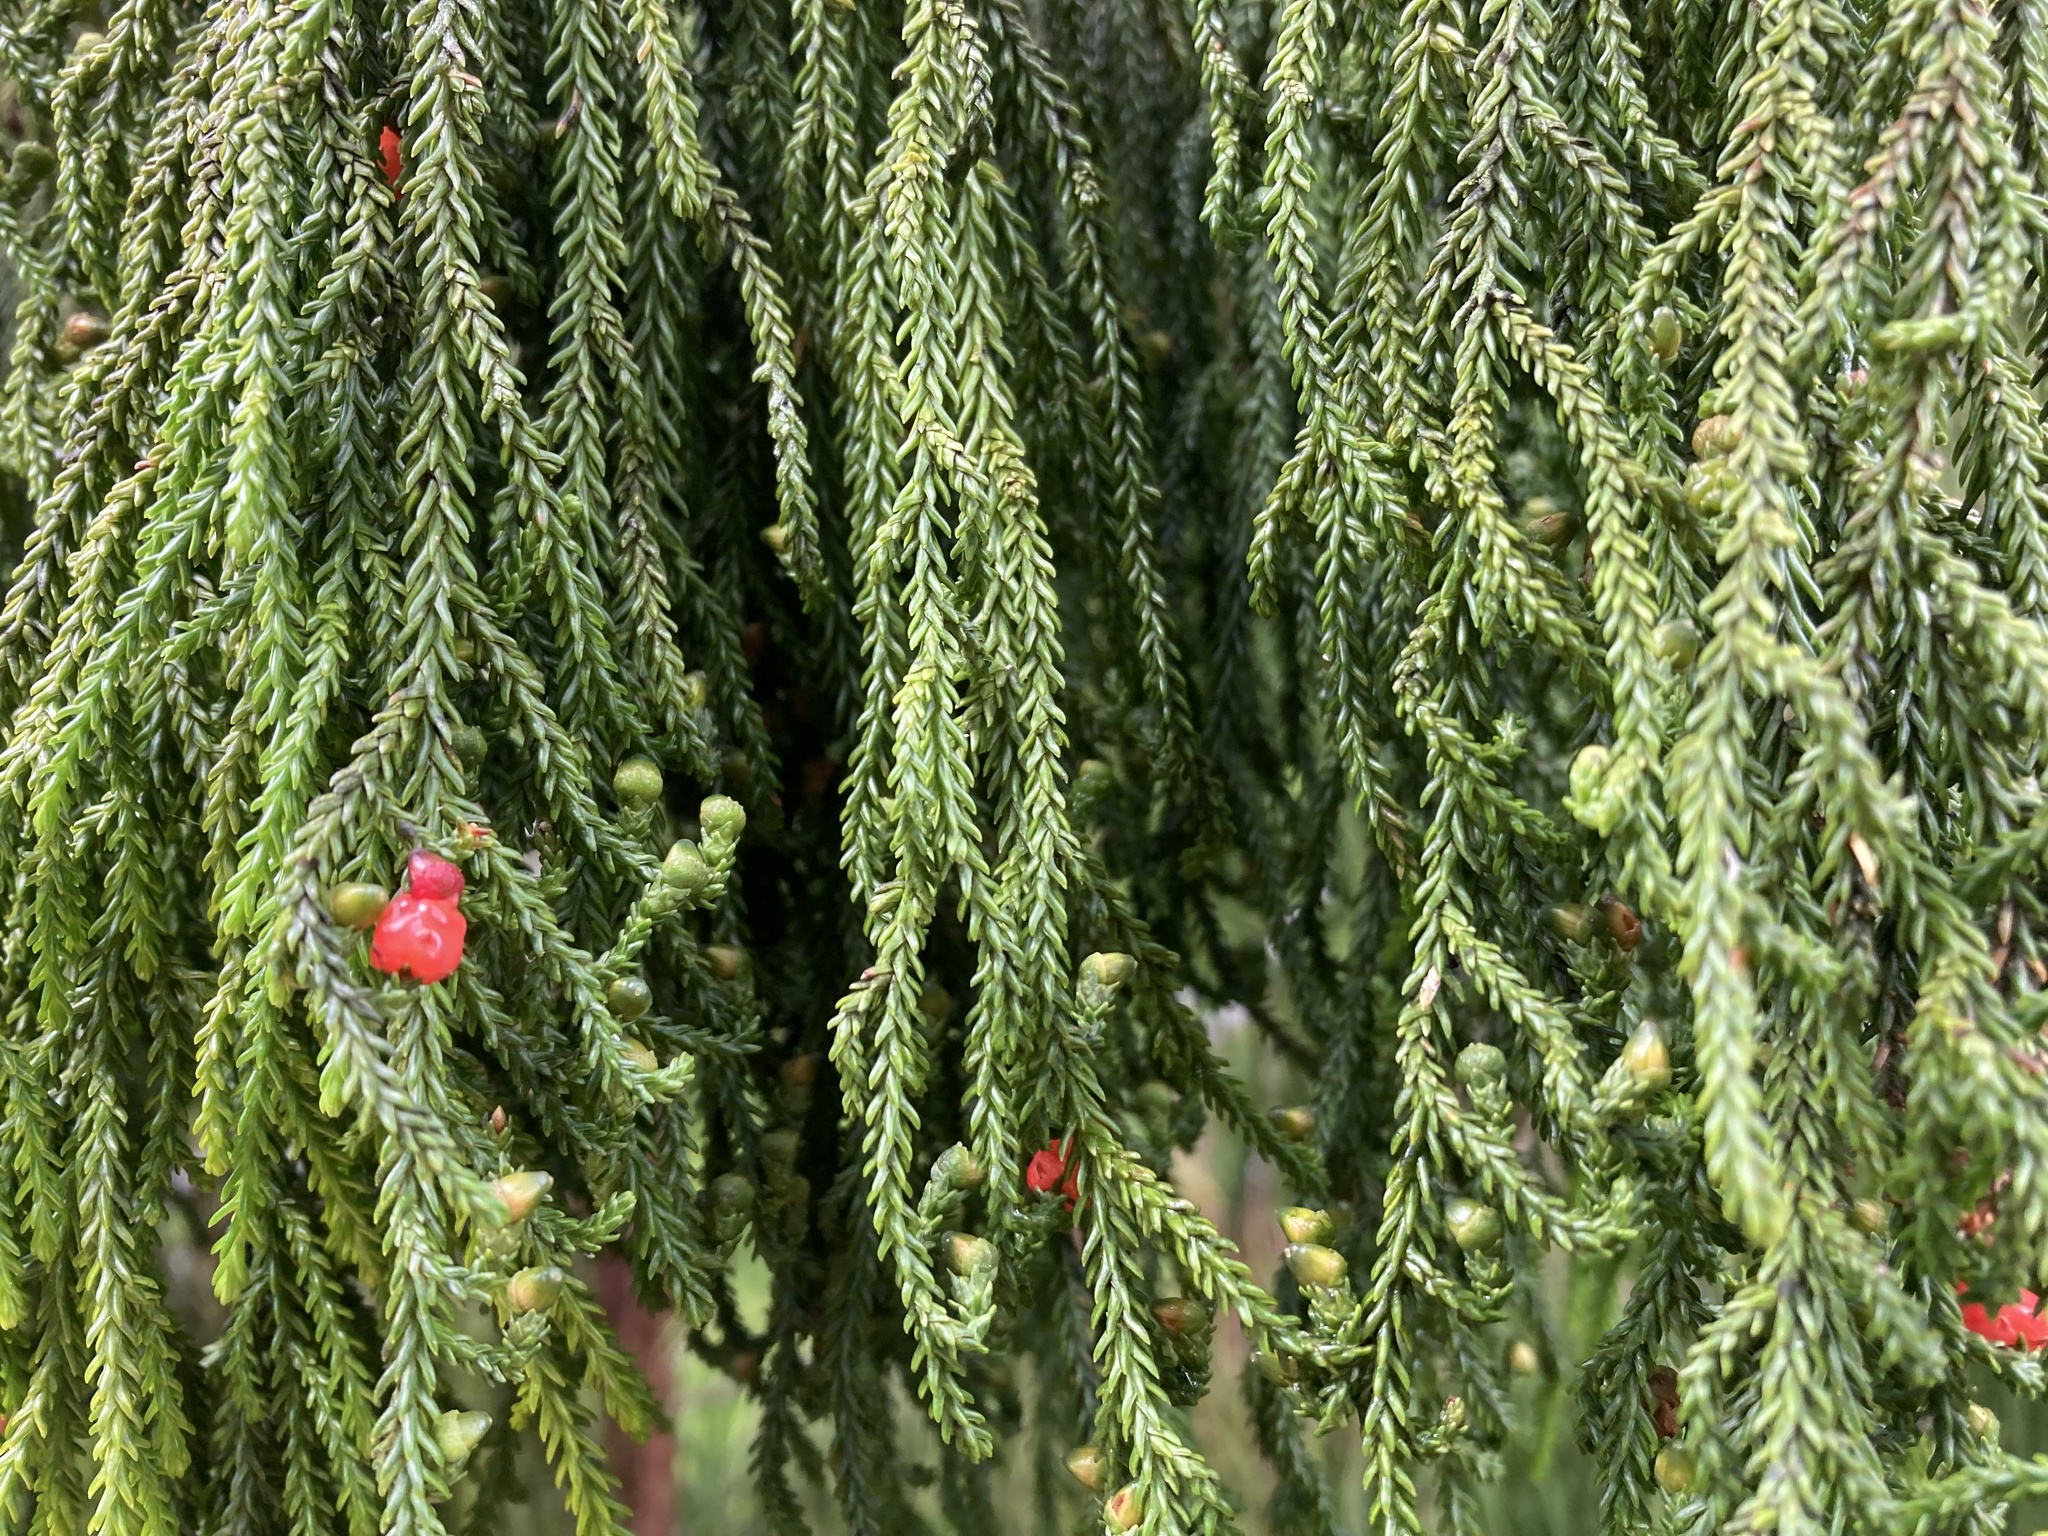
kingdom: Plantae
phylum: Tracheophyta
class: Pinopsida
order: Pinales
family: Podocarpaceae
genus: Dacrydium
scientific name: Dacrydium cupressinum
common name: Red pine
